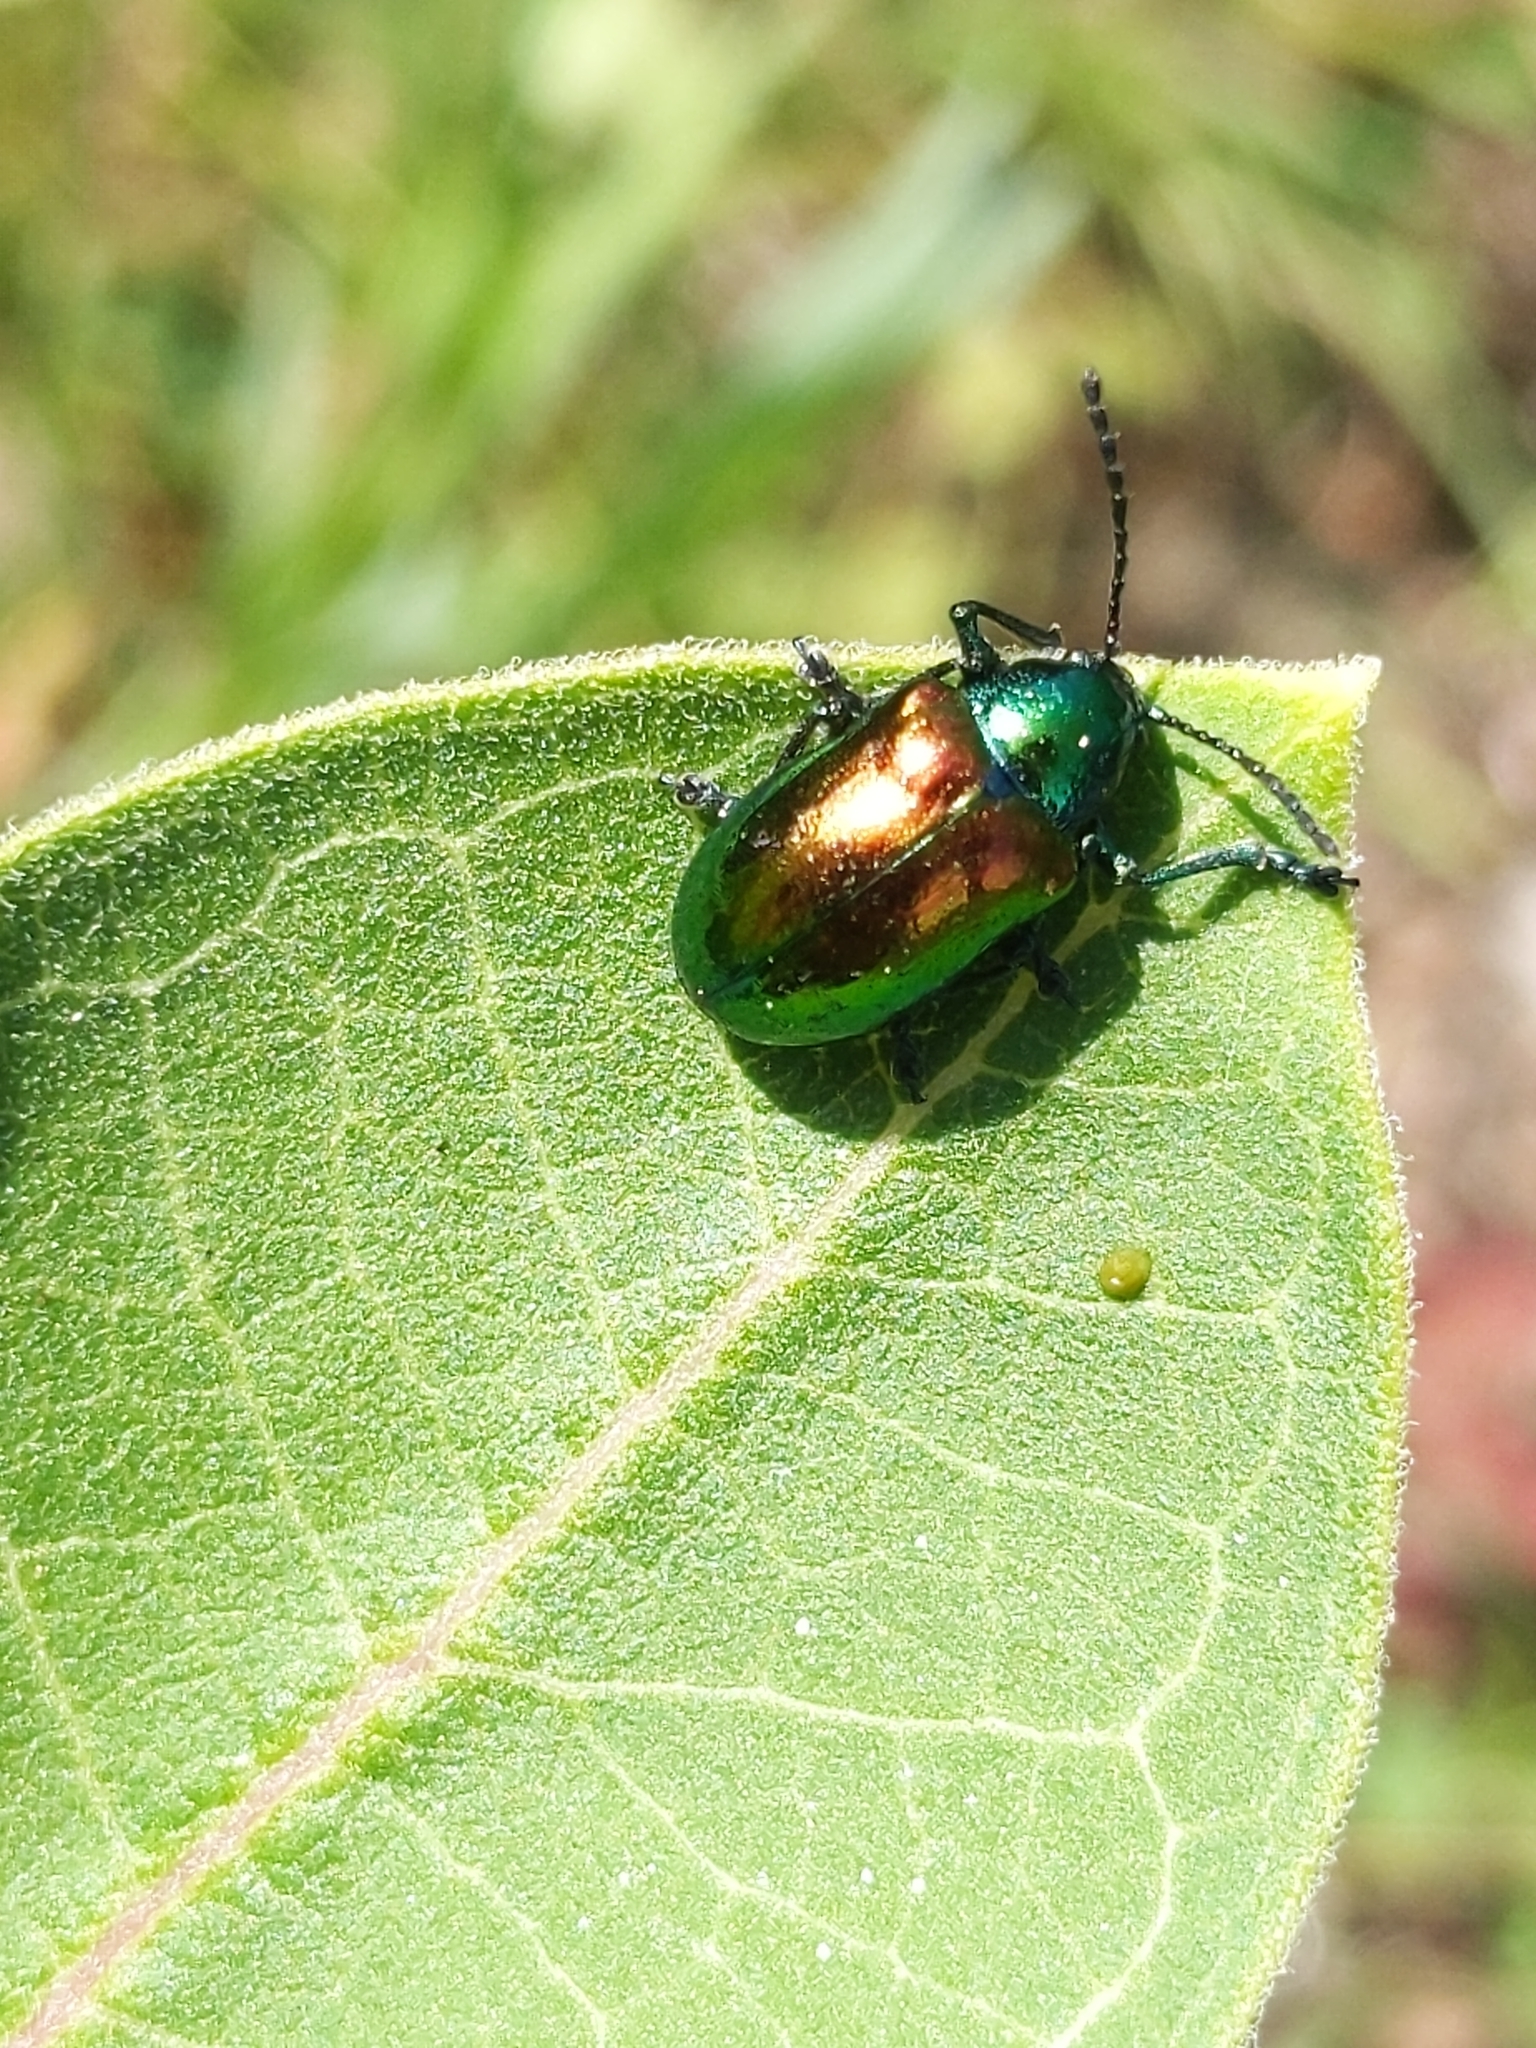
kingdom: Animalia
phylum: Arthropoda
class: Insecta
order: Coleoptera
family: Chrysomelidae
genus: Chrysochus
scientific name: Chrysochus auratus
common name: Dogbane leaf beetle
